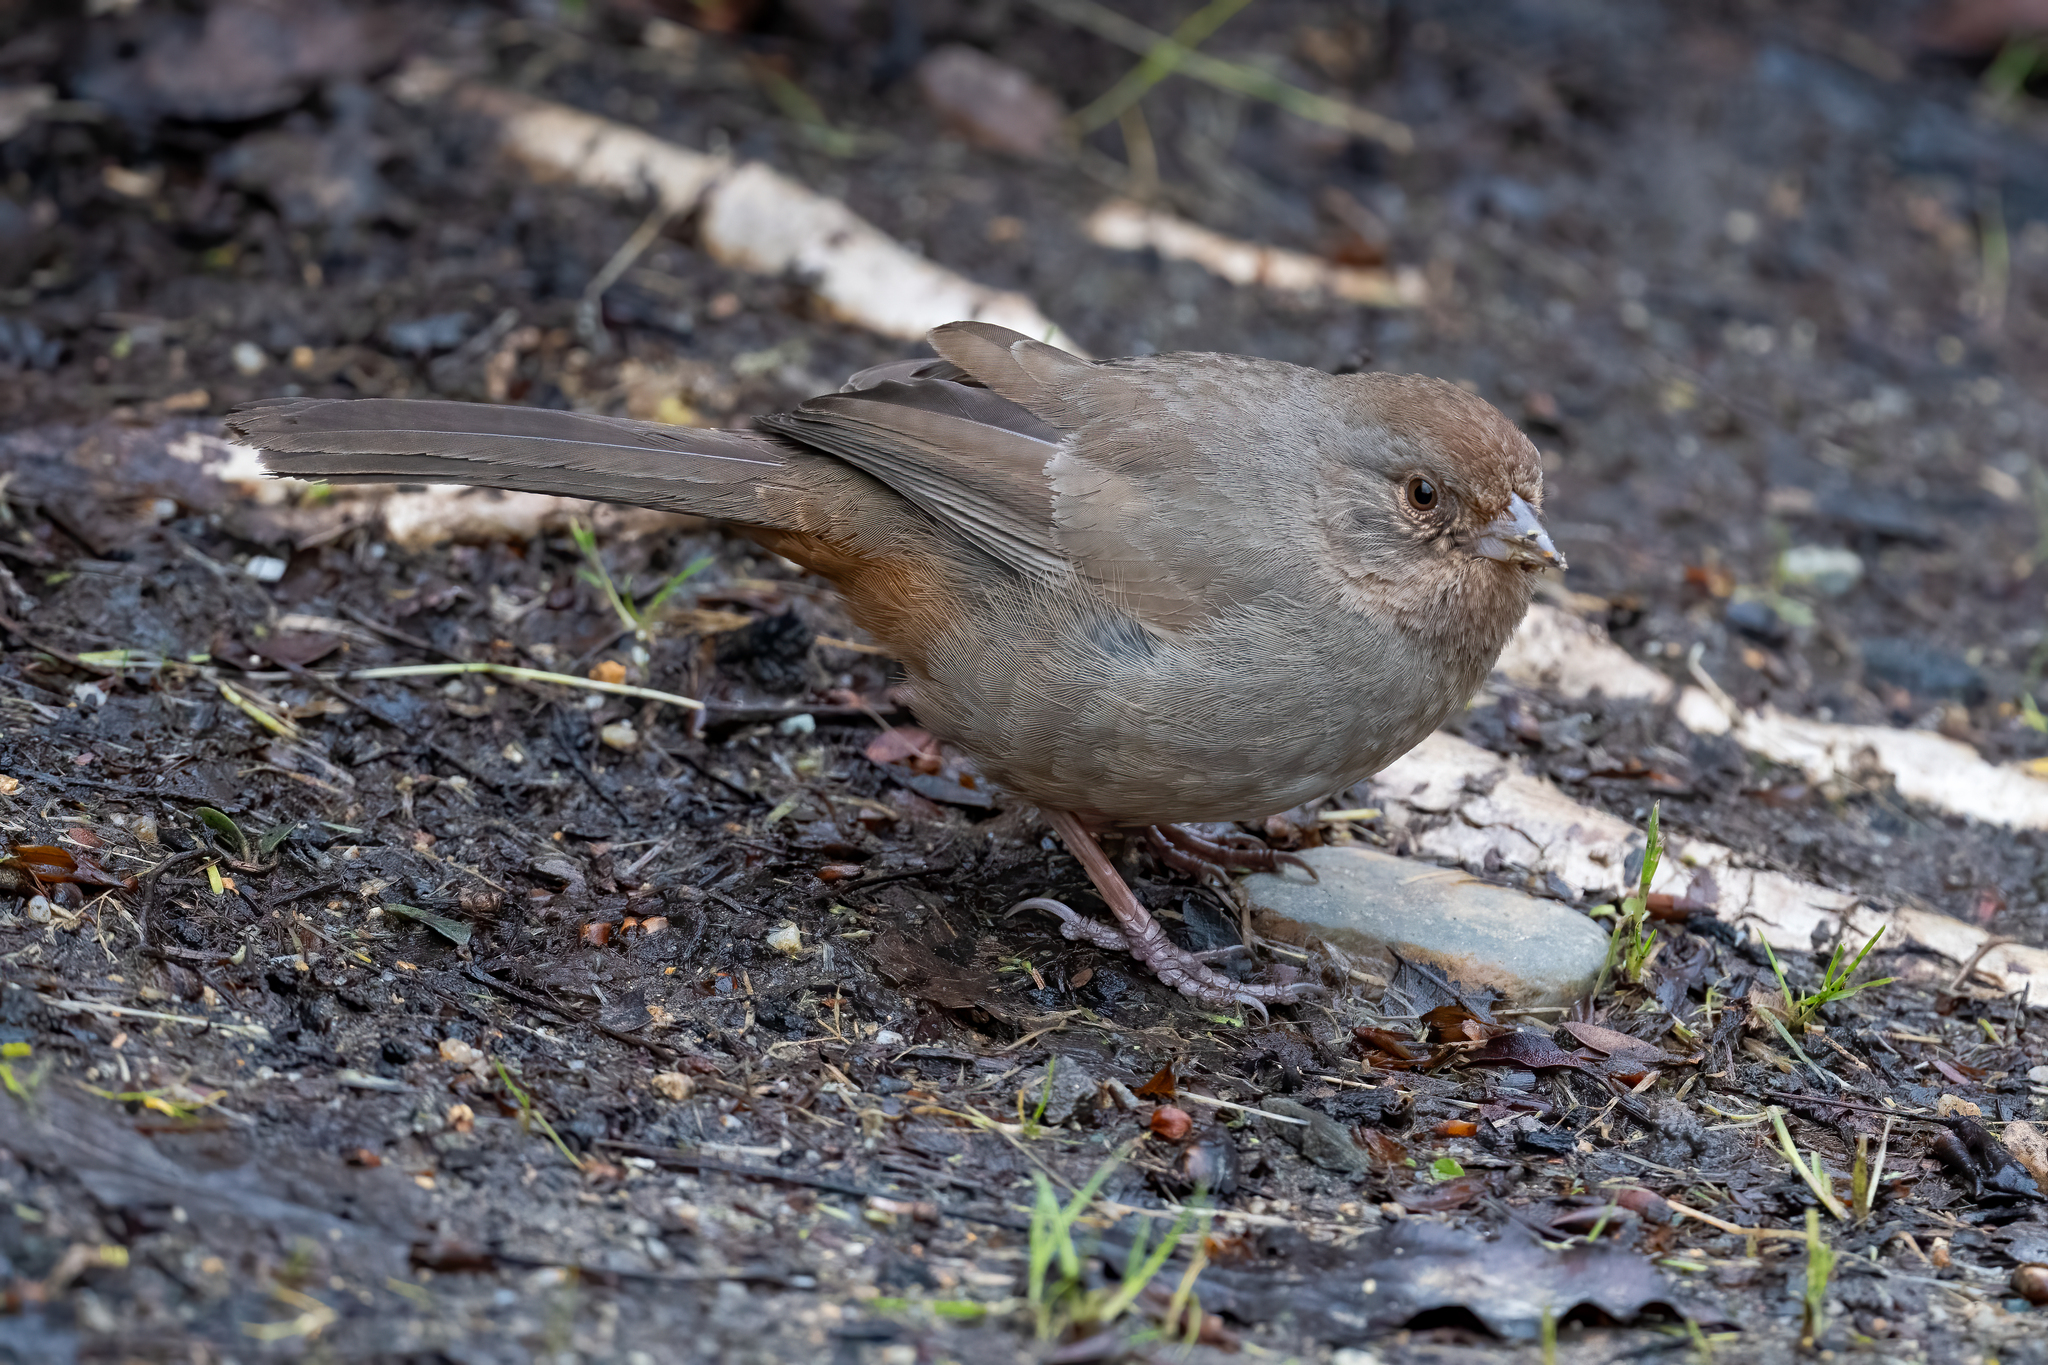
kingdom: Animalia
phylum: Chordata
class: Aves
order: Passeriformes
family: Passerellidae
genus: Melozone
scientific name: Melozone crissalis
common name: California towhee
